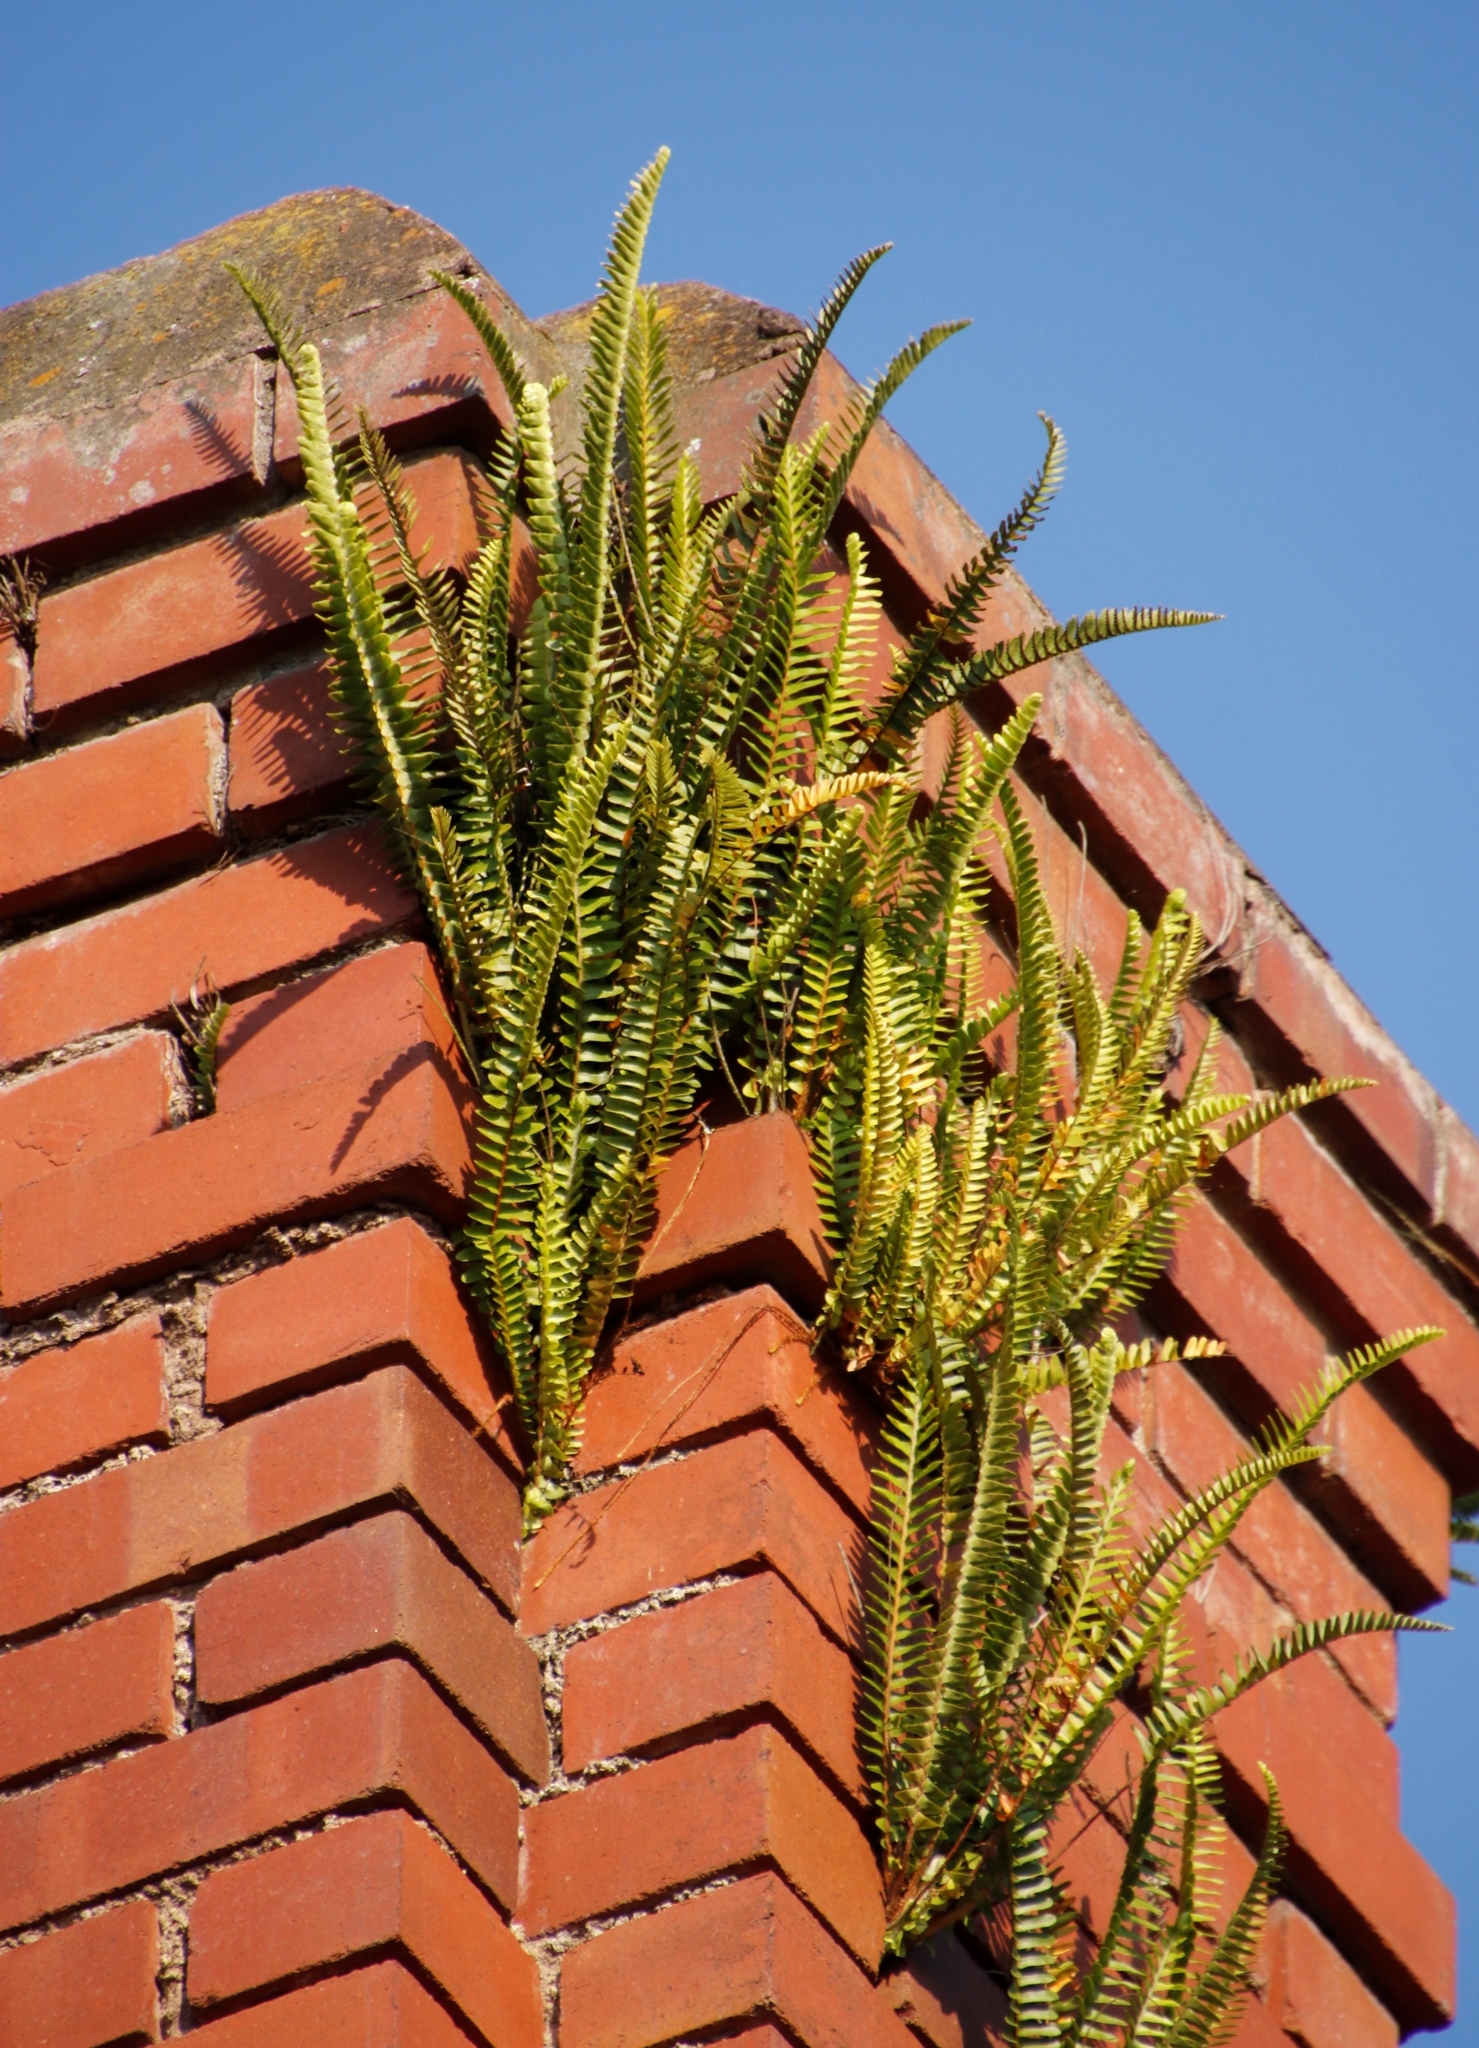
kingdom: Plantae
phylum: Tracheophyta
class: Polypodiopsida
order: Polypodiales
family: Nephrolepidaceae
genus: Nephrolepis
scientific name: Nephrolepis cordifolia
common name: Narrow swordfern
